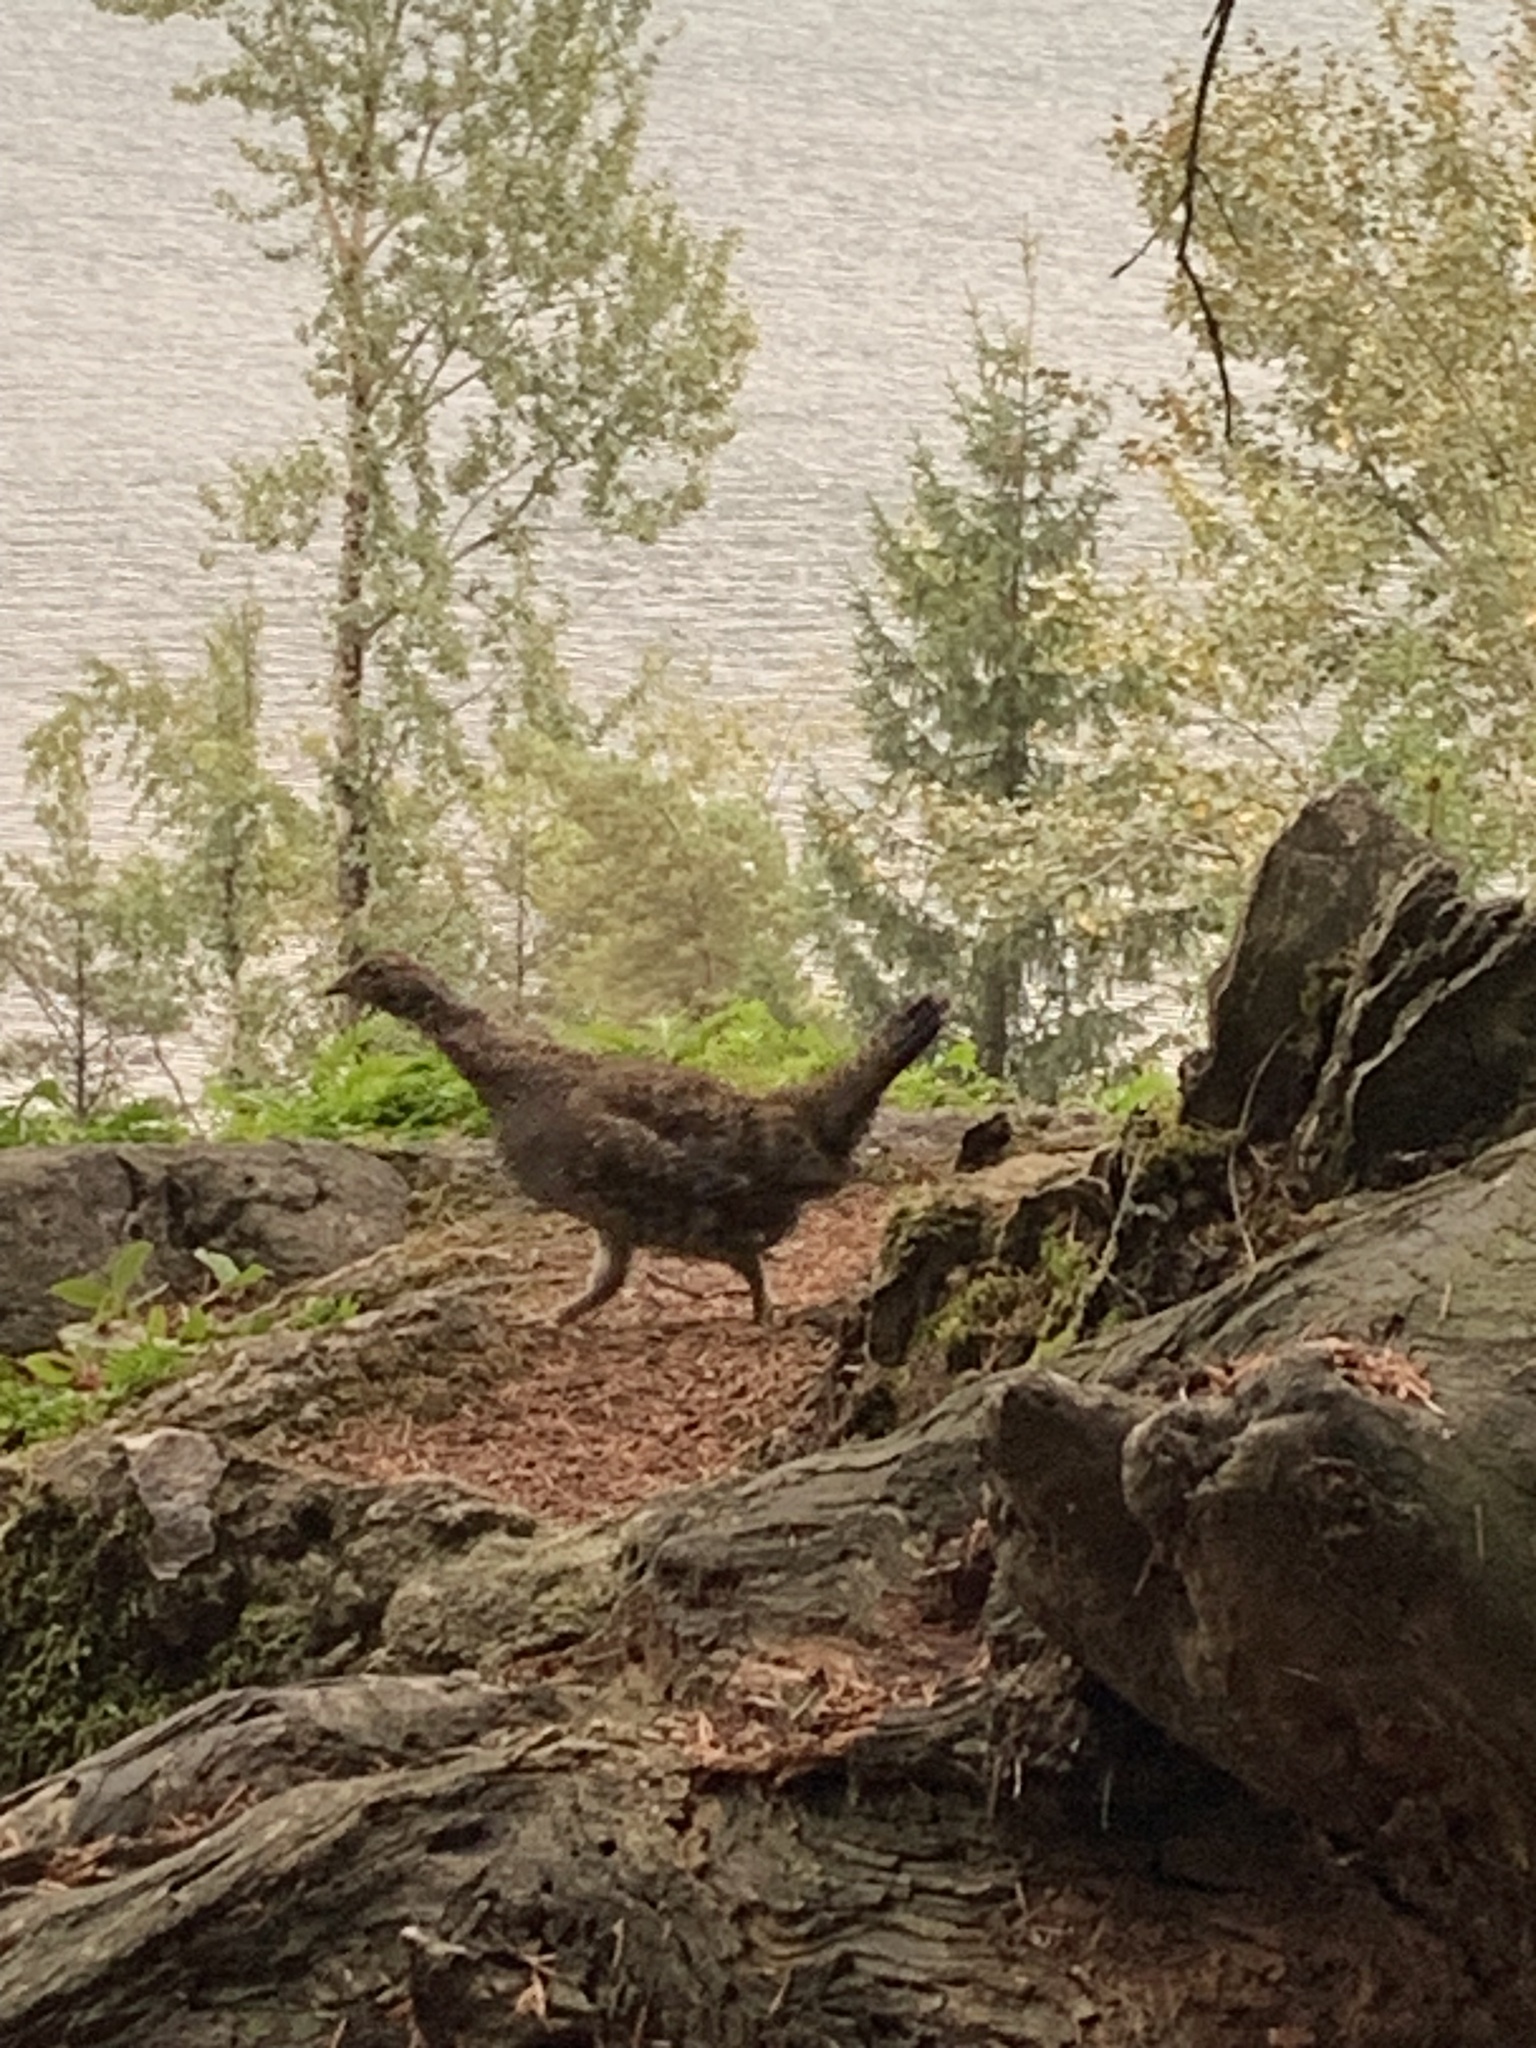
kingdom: Animalia
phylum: Chordata
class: Aves
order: Galliformes
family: Phasianidae
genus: Dendragapus
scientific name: Dendragapus fuliginosus
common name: Sooty grouse
